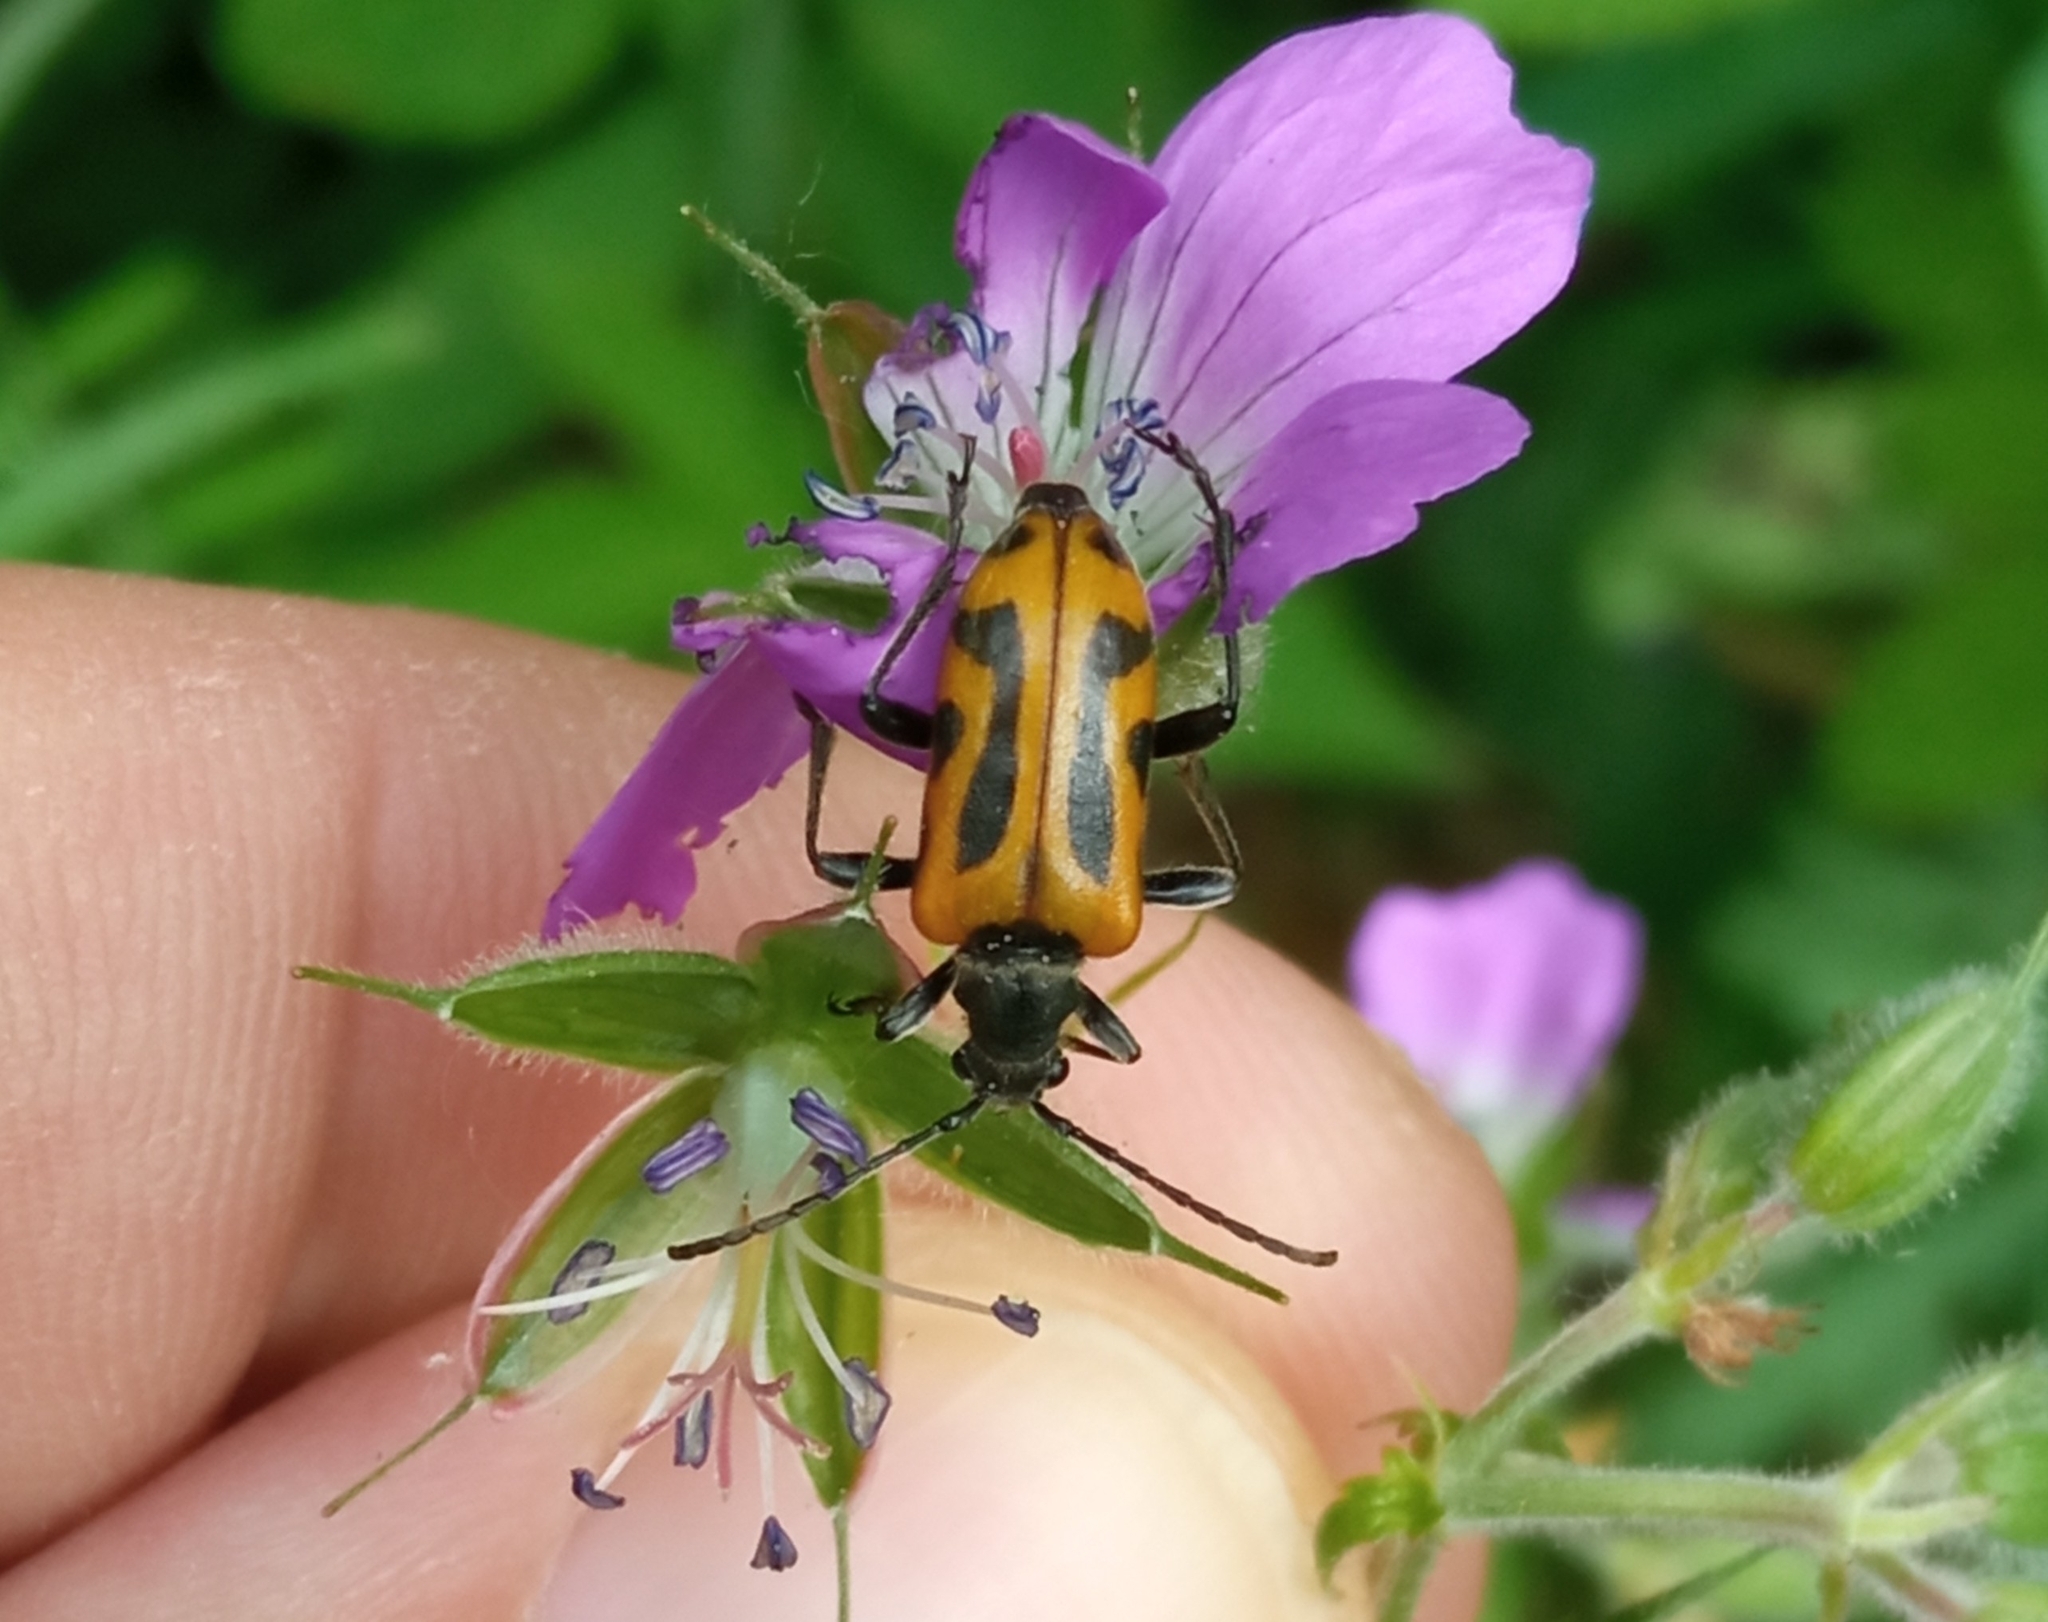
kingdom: Animalia
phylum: Arthropoda
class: Insecta
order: Coleoptera
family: Cerambycidae
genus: Brachyta
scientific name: Brachyta interrogationis
